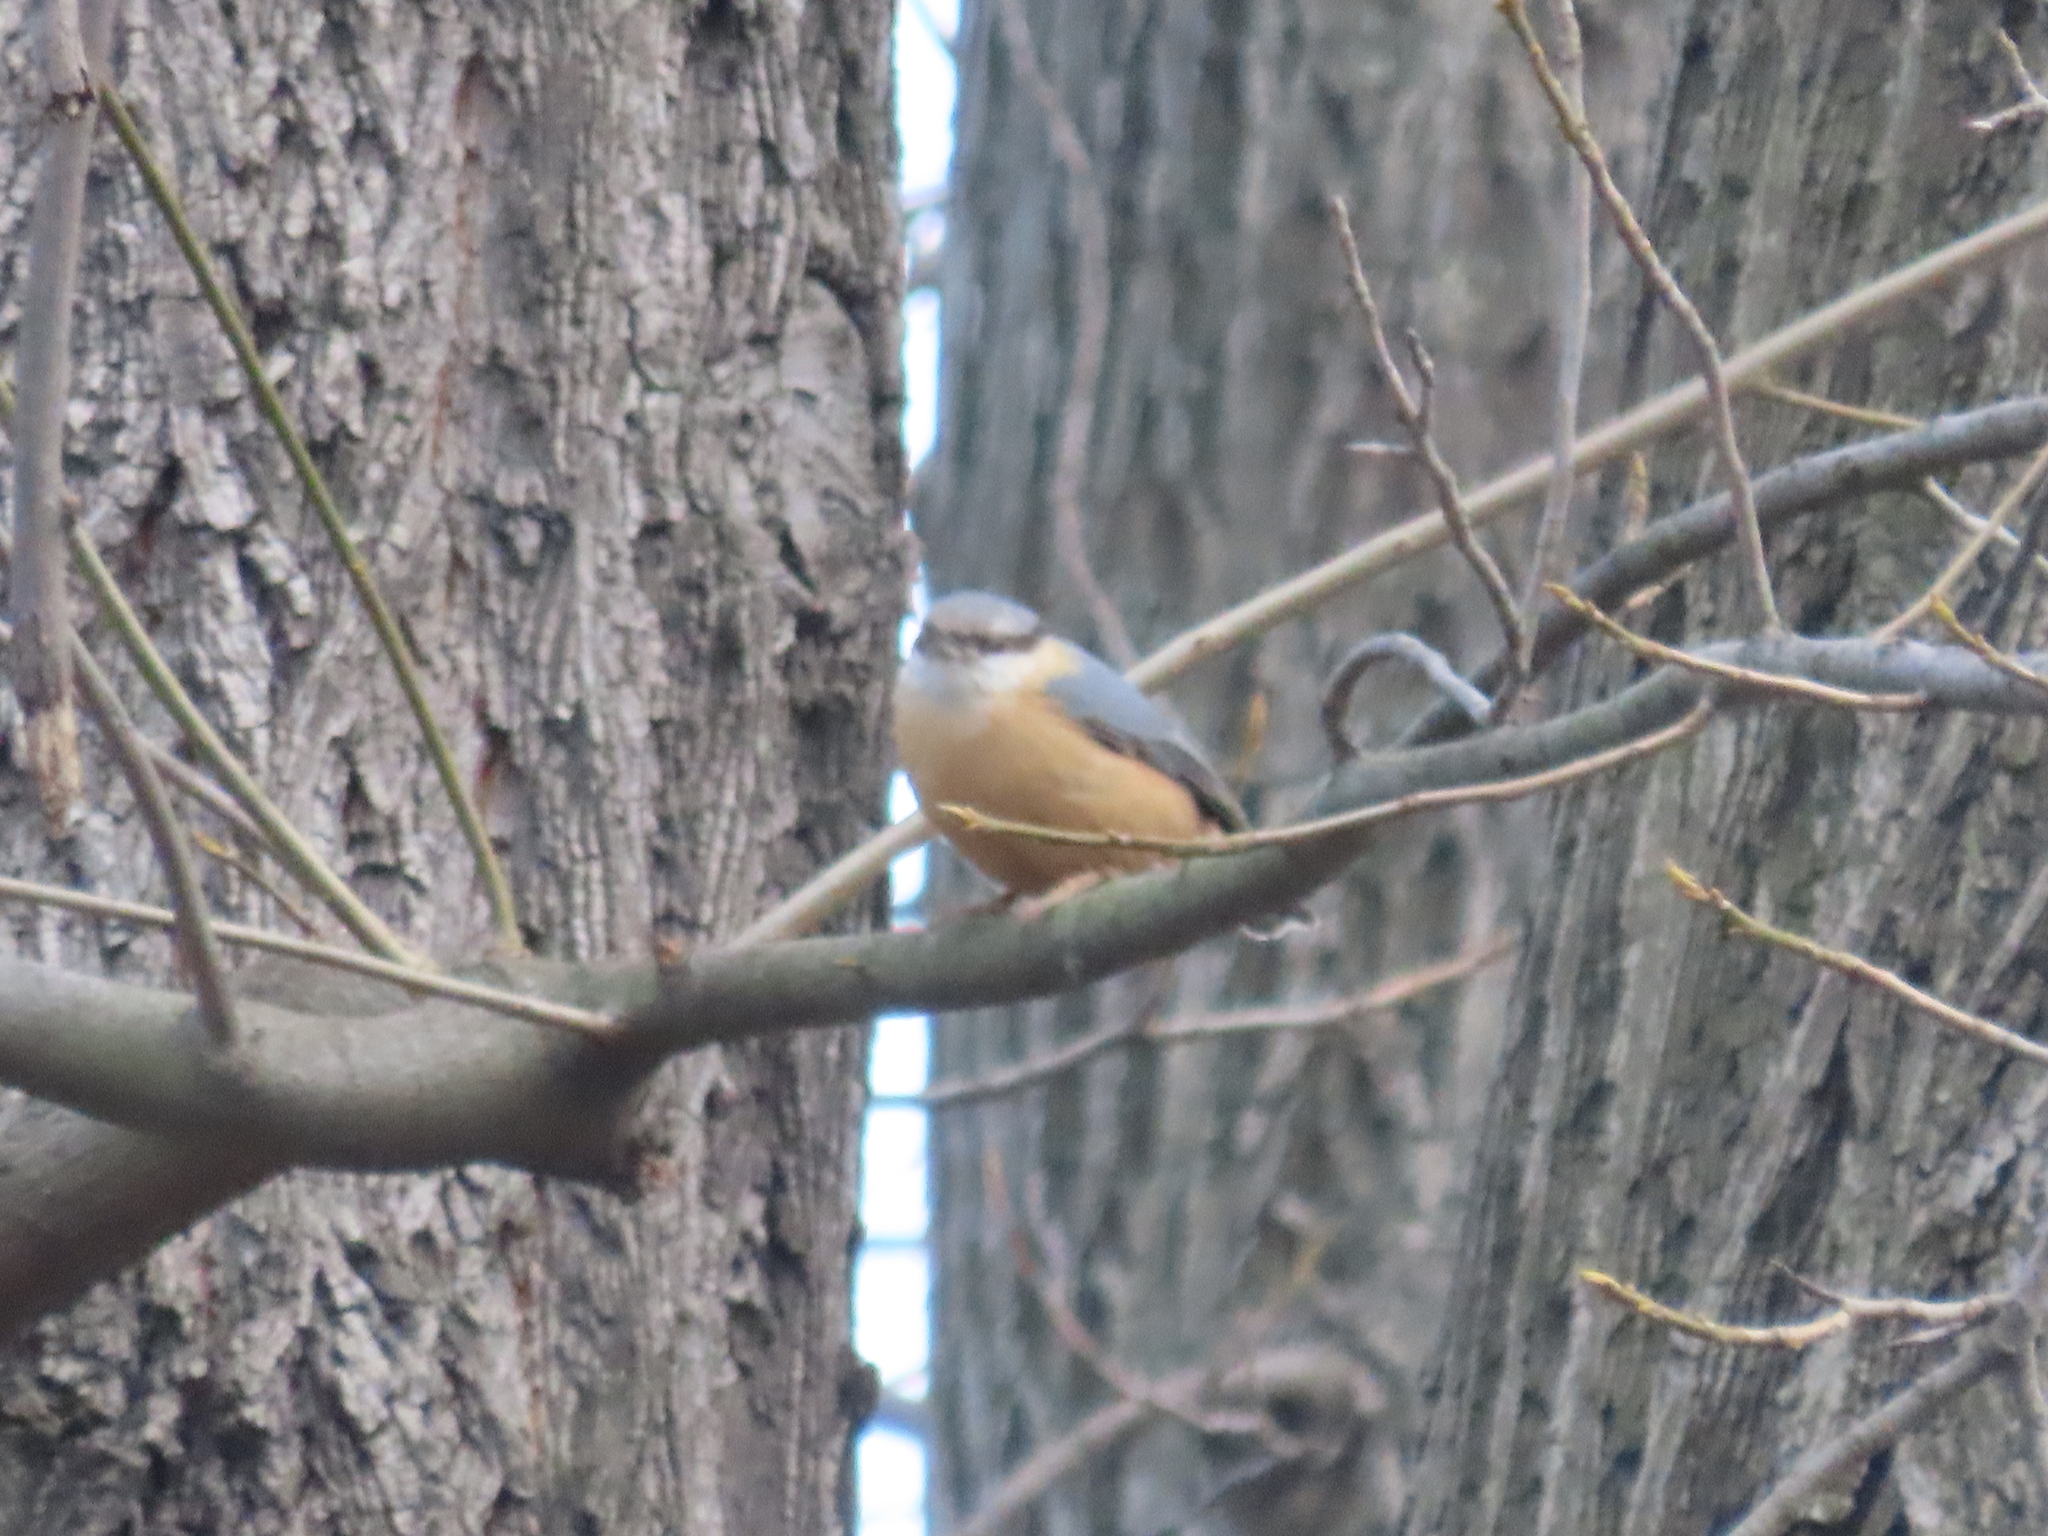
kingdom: Animalia
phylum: Chordata
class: Aves
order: Passeriformes
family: Sittidae
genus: Sitta
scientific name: Sitta europaea
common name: Eurasian nuthatch
